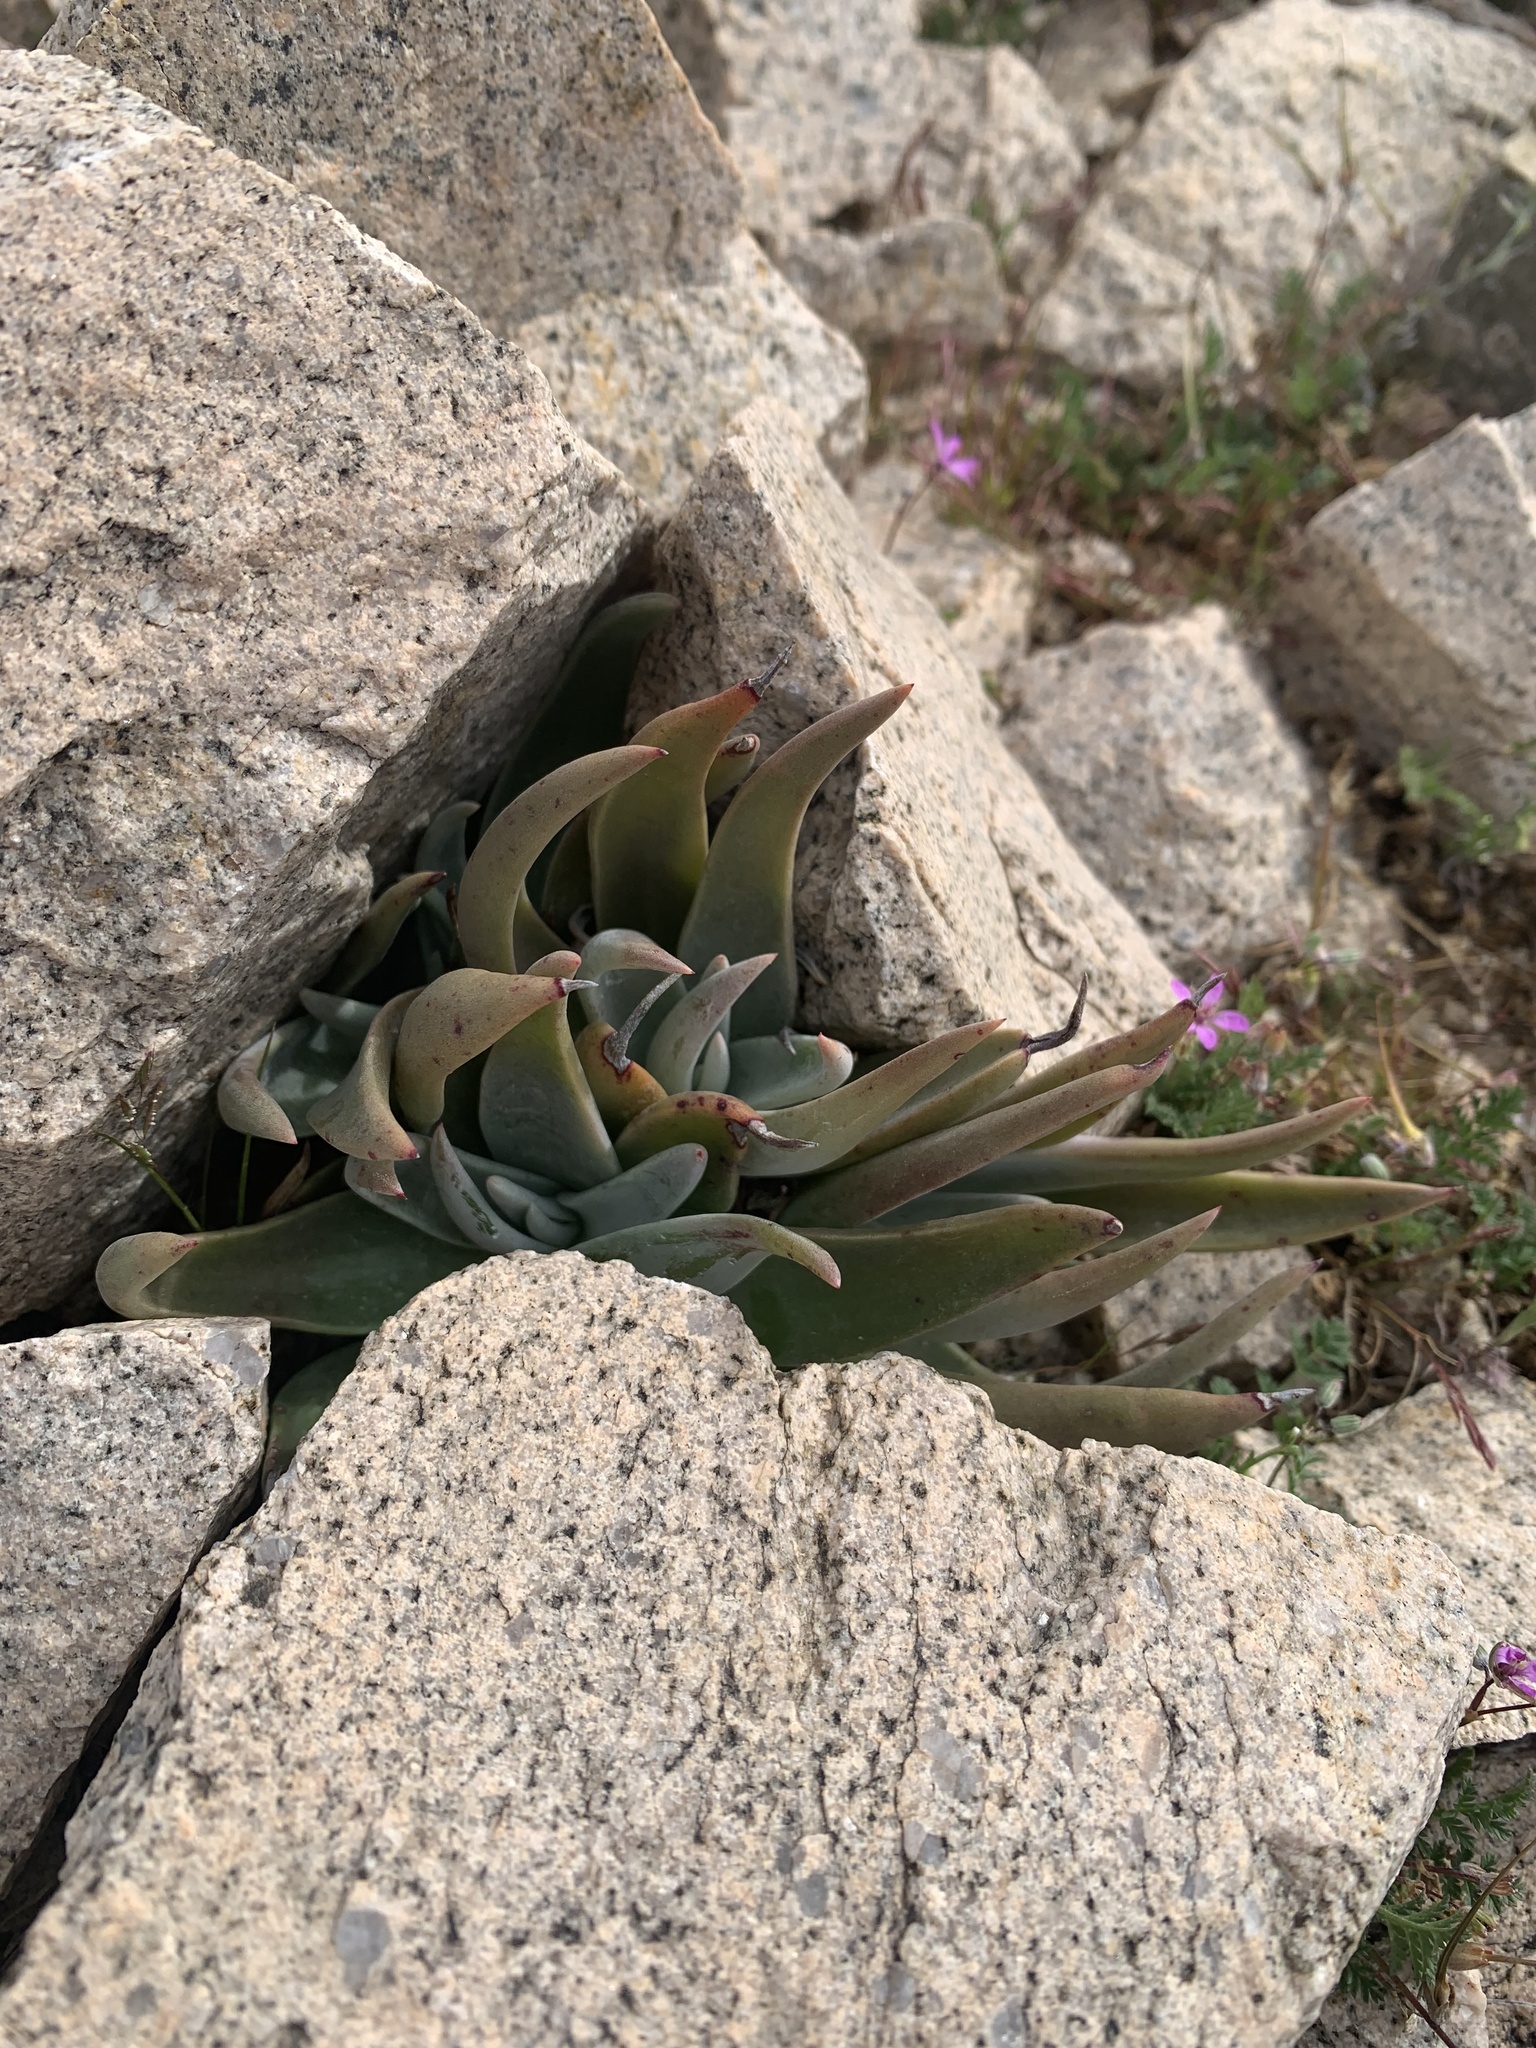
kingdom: Plantae
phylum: Tracheophyta
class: Magnoliopsida
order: Saxifragales
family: Crassulaceae
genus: Dudleya
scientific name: Dudleya saxosa
